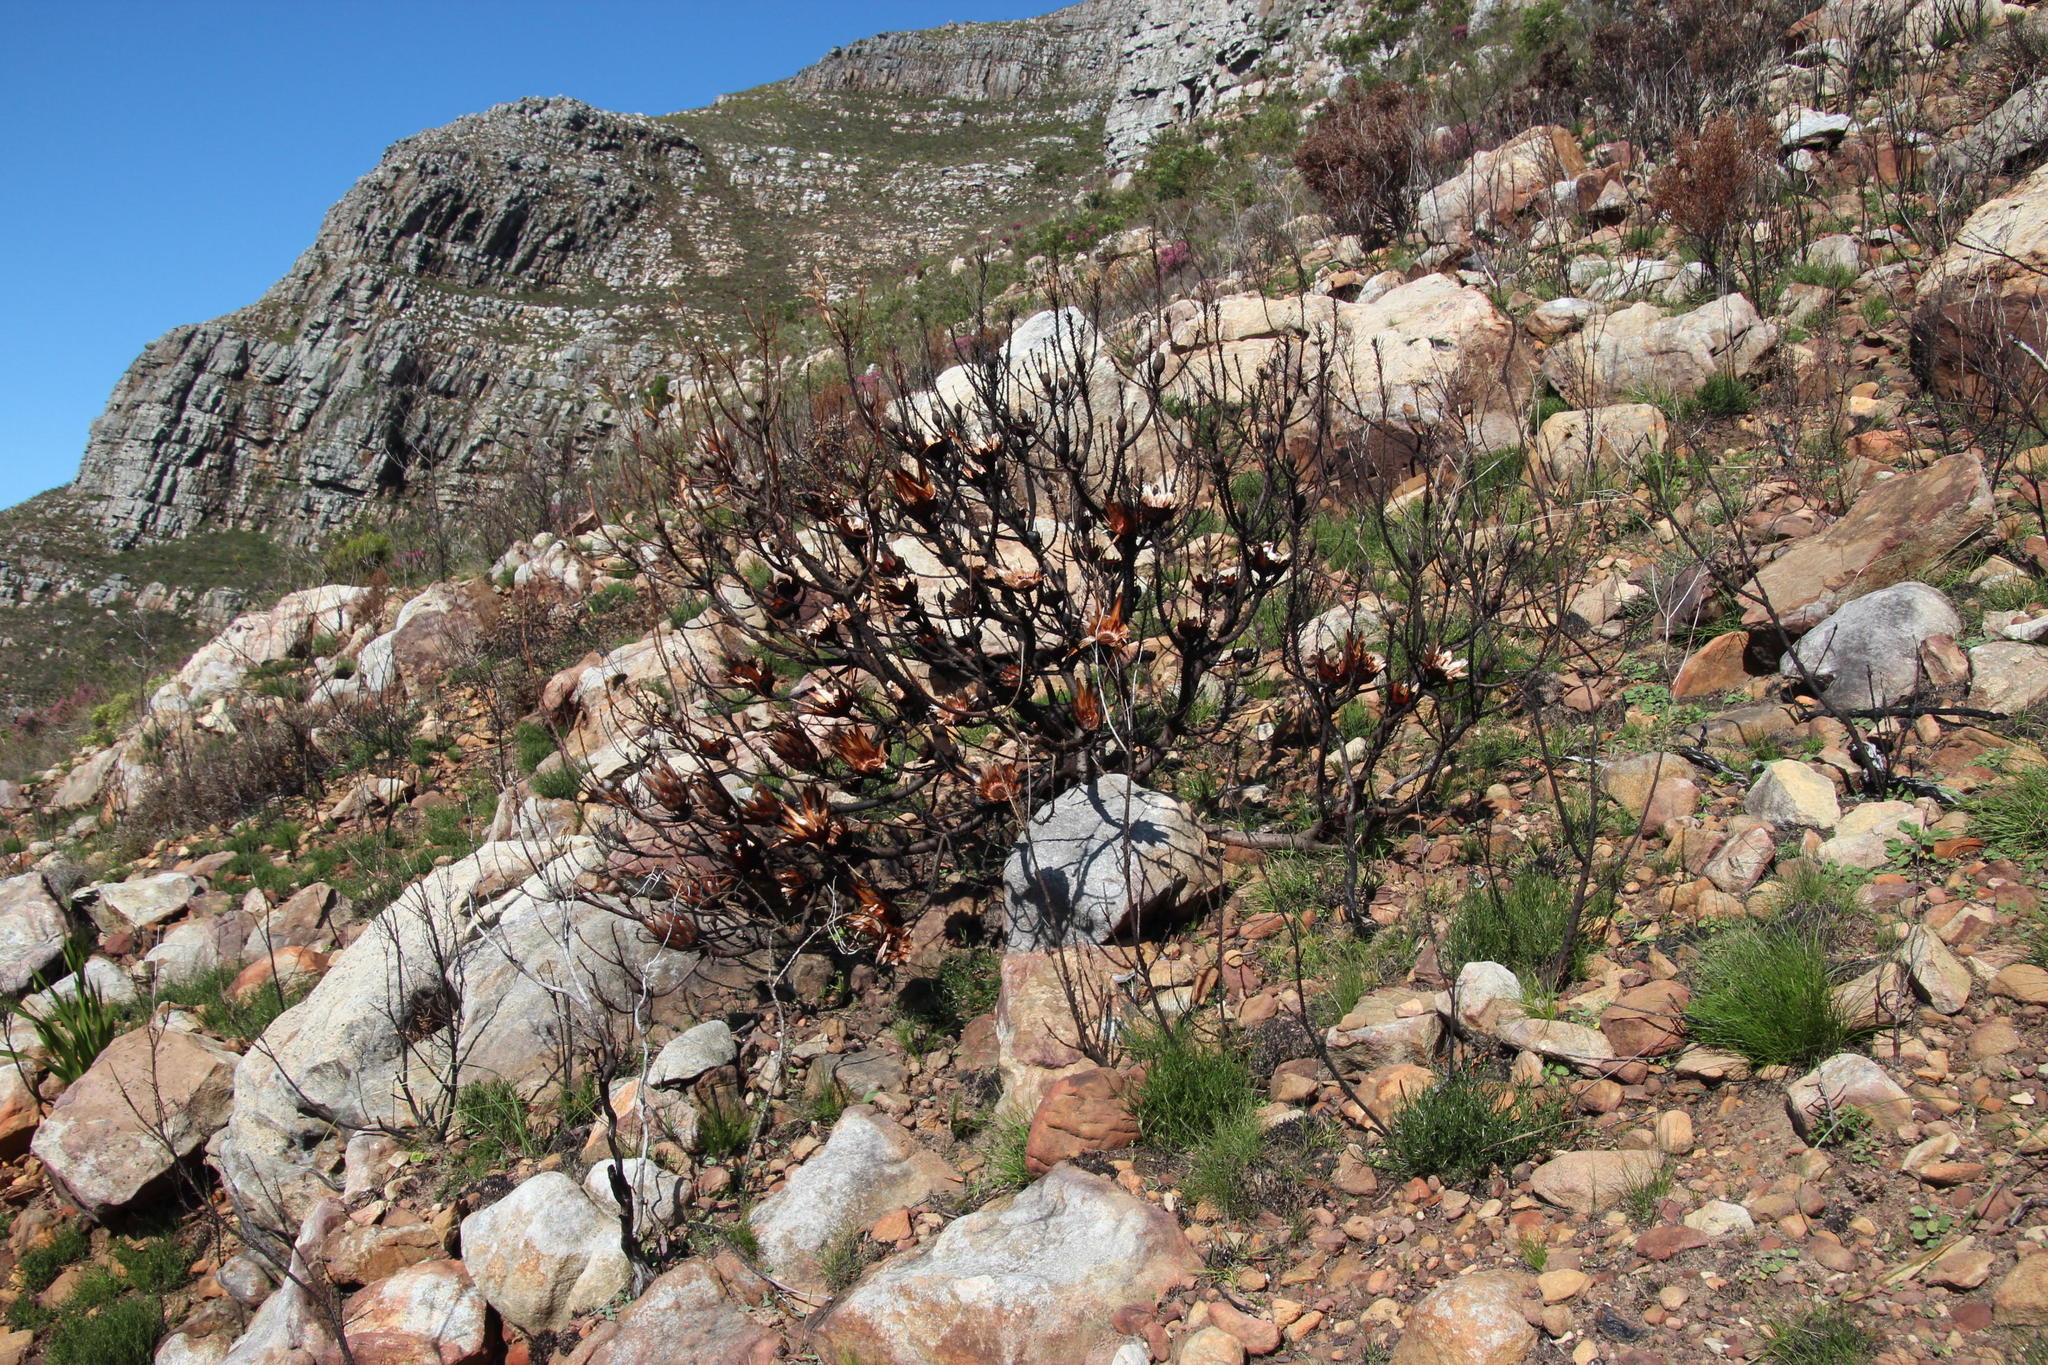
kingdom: Plantae
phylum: Tracheophyta
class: Magnoliopsida
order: Proteales
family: Proteaceae
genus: Protea
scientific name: Protea repens
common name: Sugarbush
